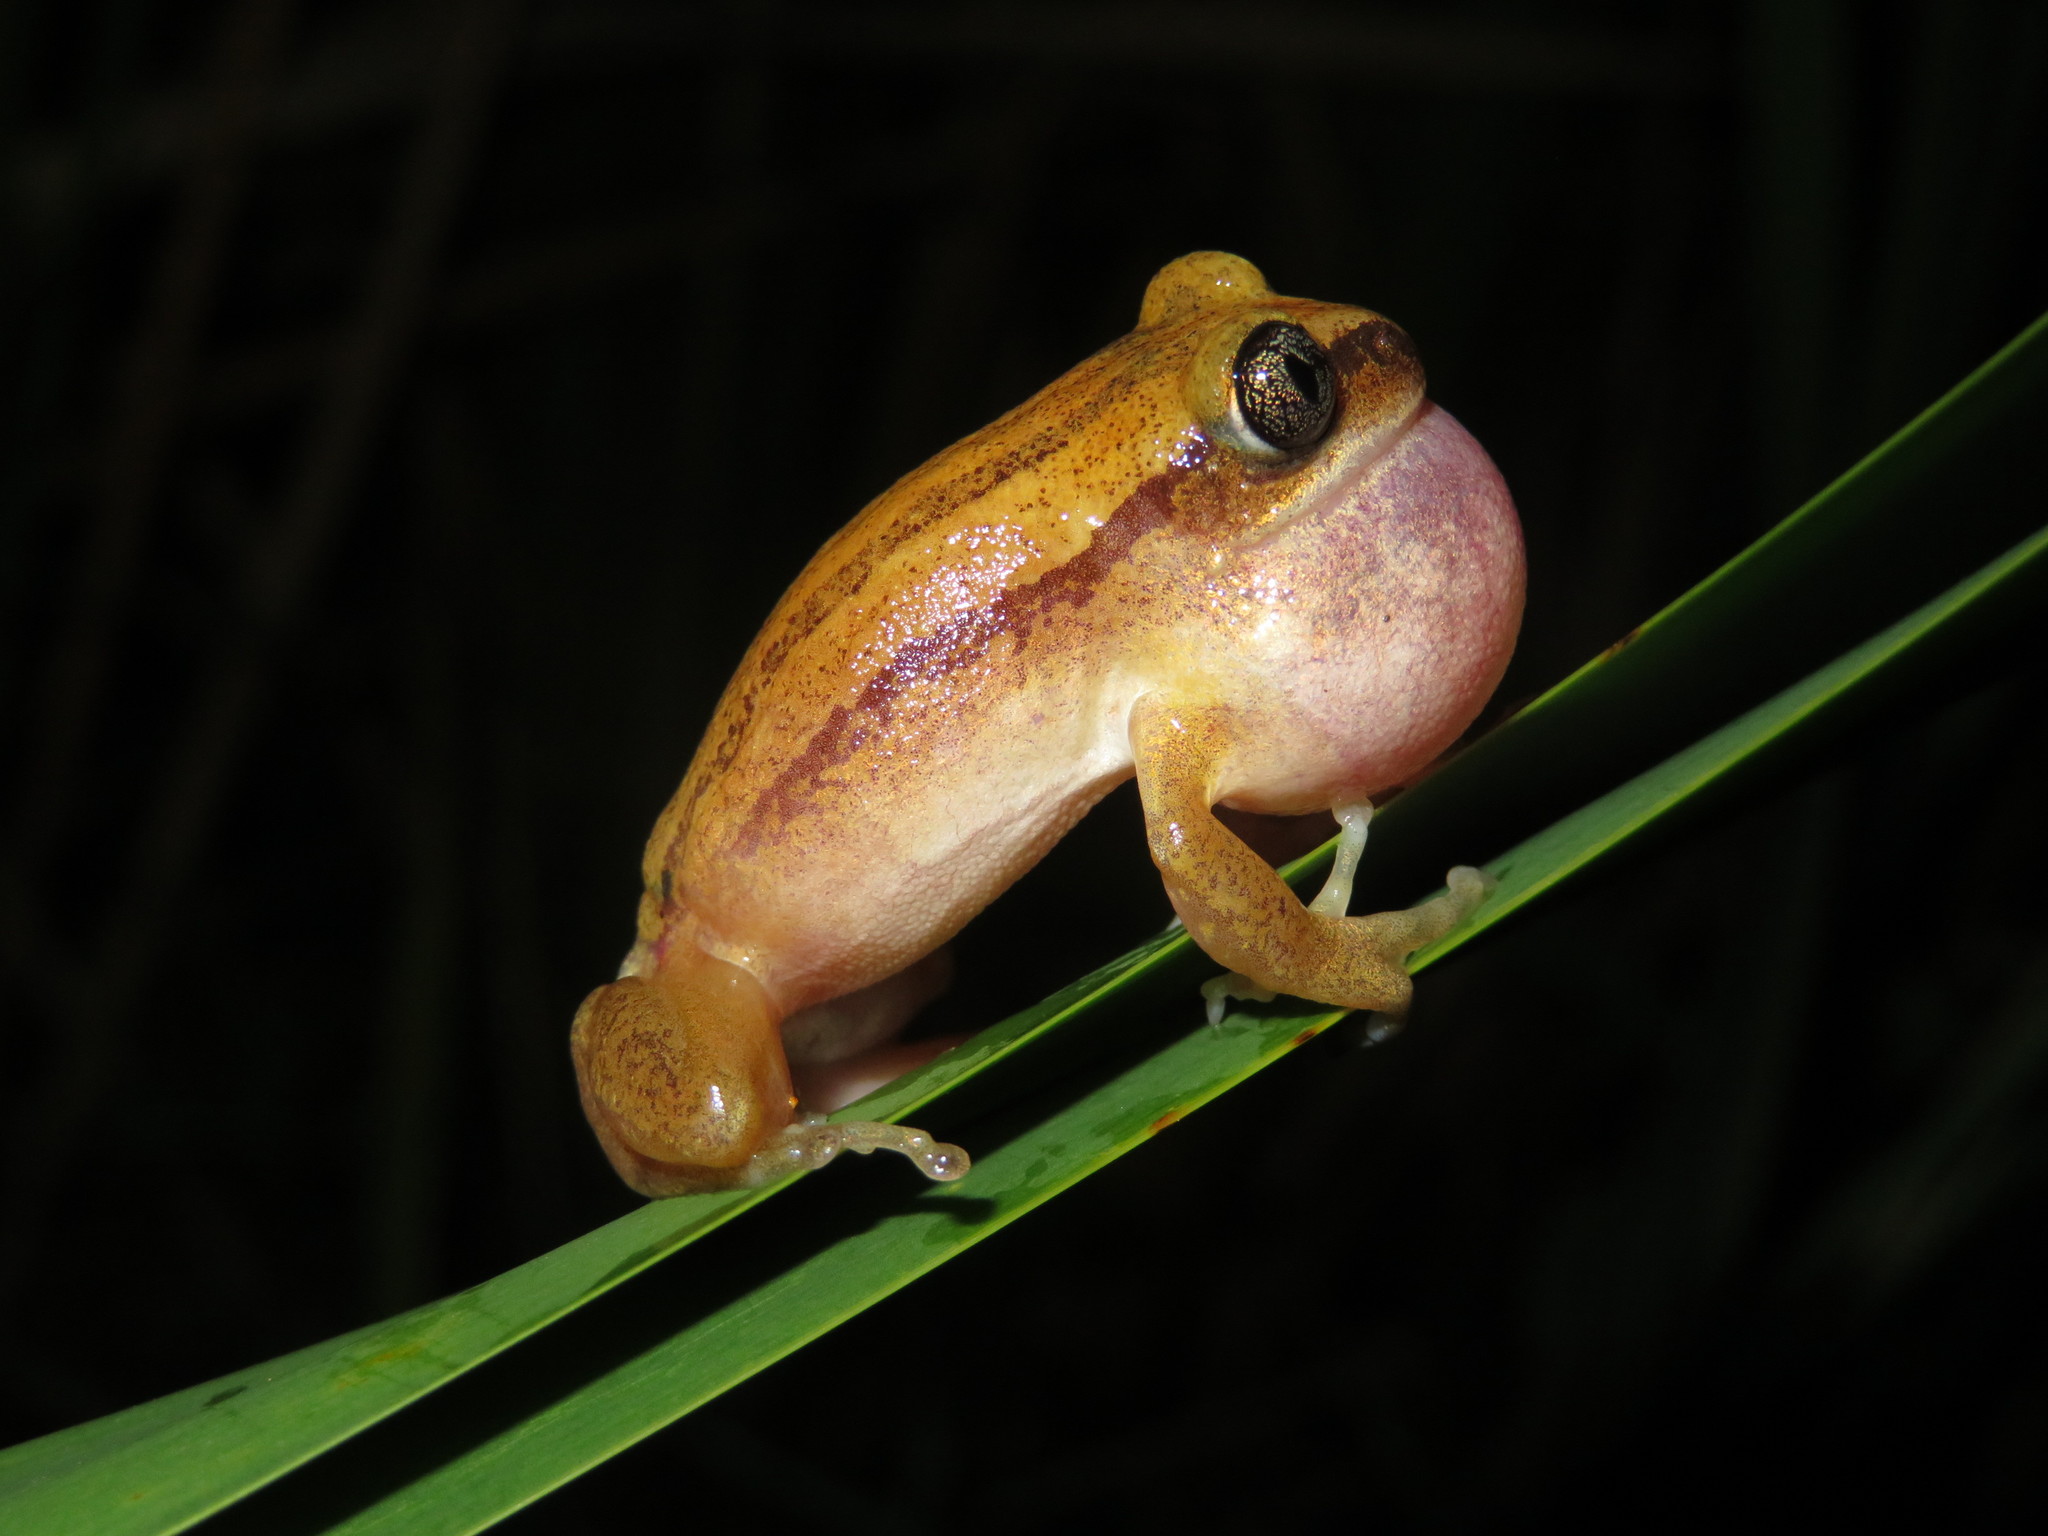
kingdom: Animalia
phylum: Chordata
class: Amphibia
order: Anura
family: Arthroleptidae
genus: Leptopelis
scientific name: Leptopelis argenteus
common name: Broadley's tree frog
